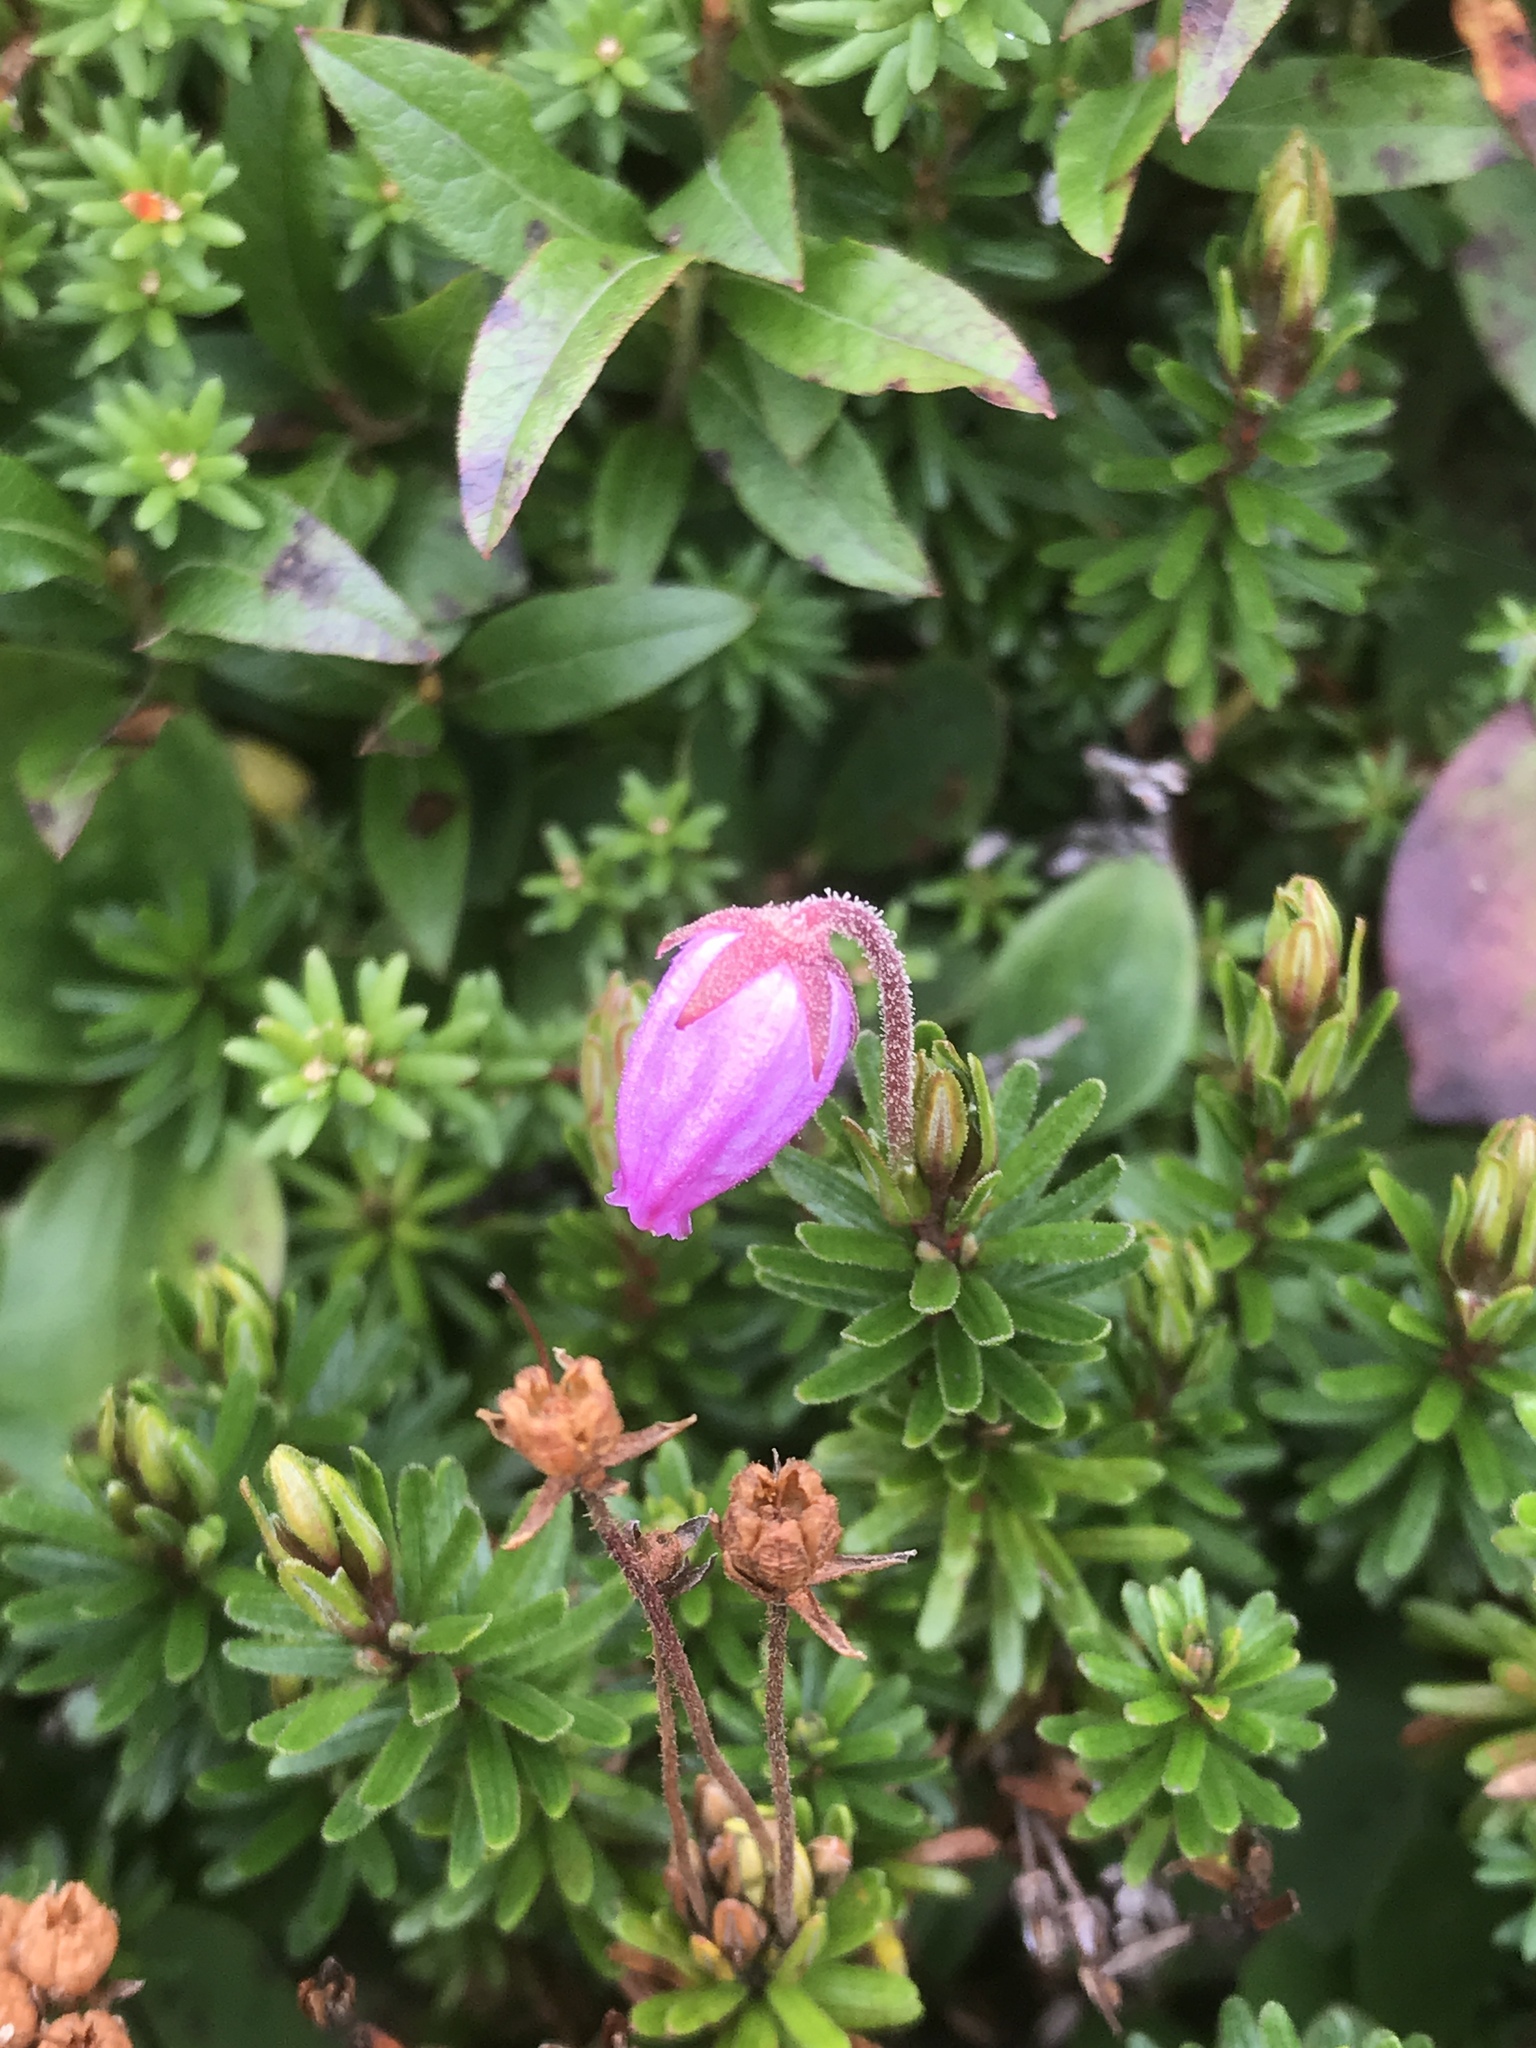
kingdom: Plantae
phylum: Tracheophyta
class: Magnoliopsida
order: Ericales
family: Ericaceae
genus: Phyllodoce
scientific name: Phyllodoce caerulea
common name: Blue heath
